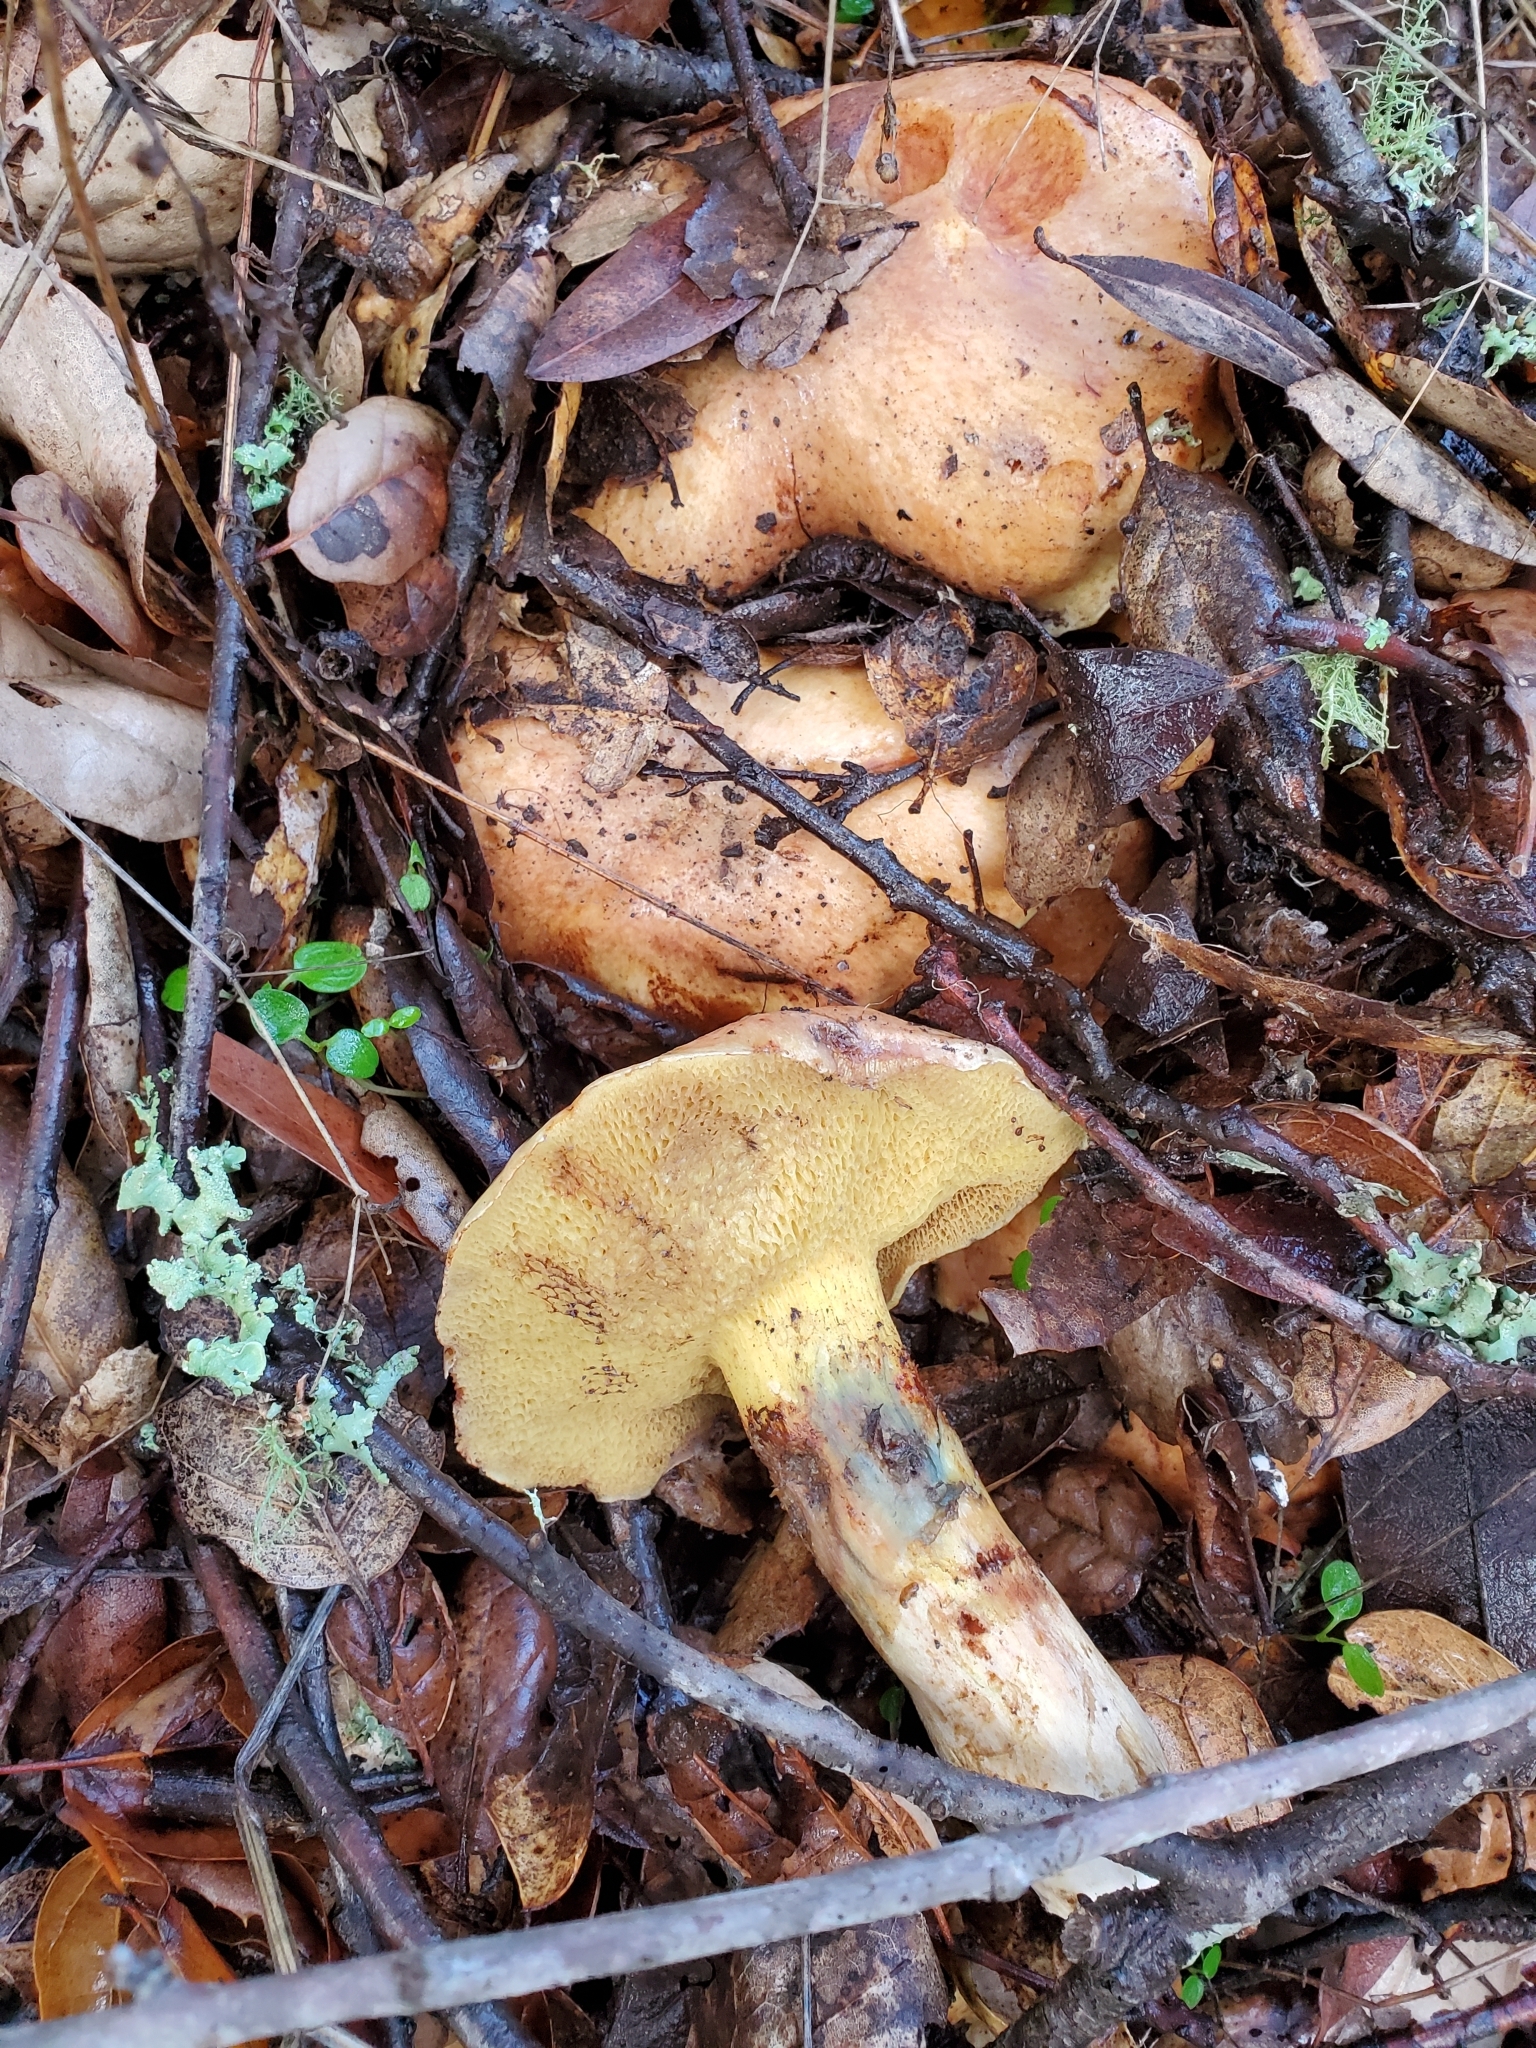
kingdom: Fungi
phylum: Basidiomycota
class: Agaricomycetes
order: Boletales
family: Suillaceae
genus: Suillus
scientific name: Suillus caerulescens
